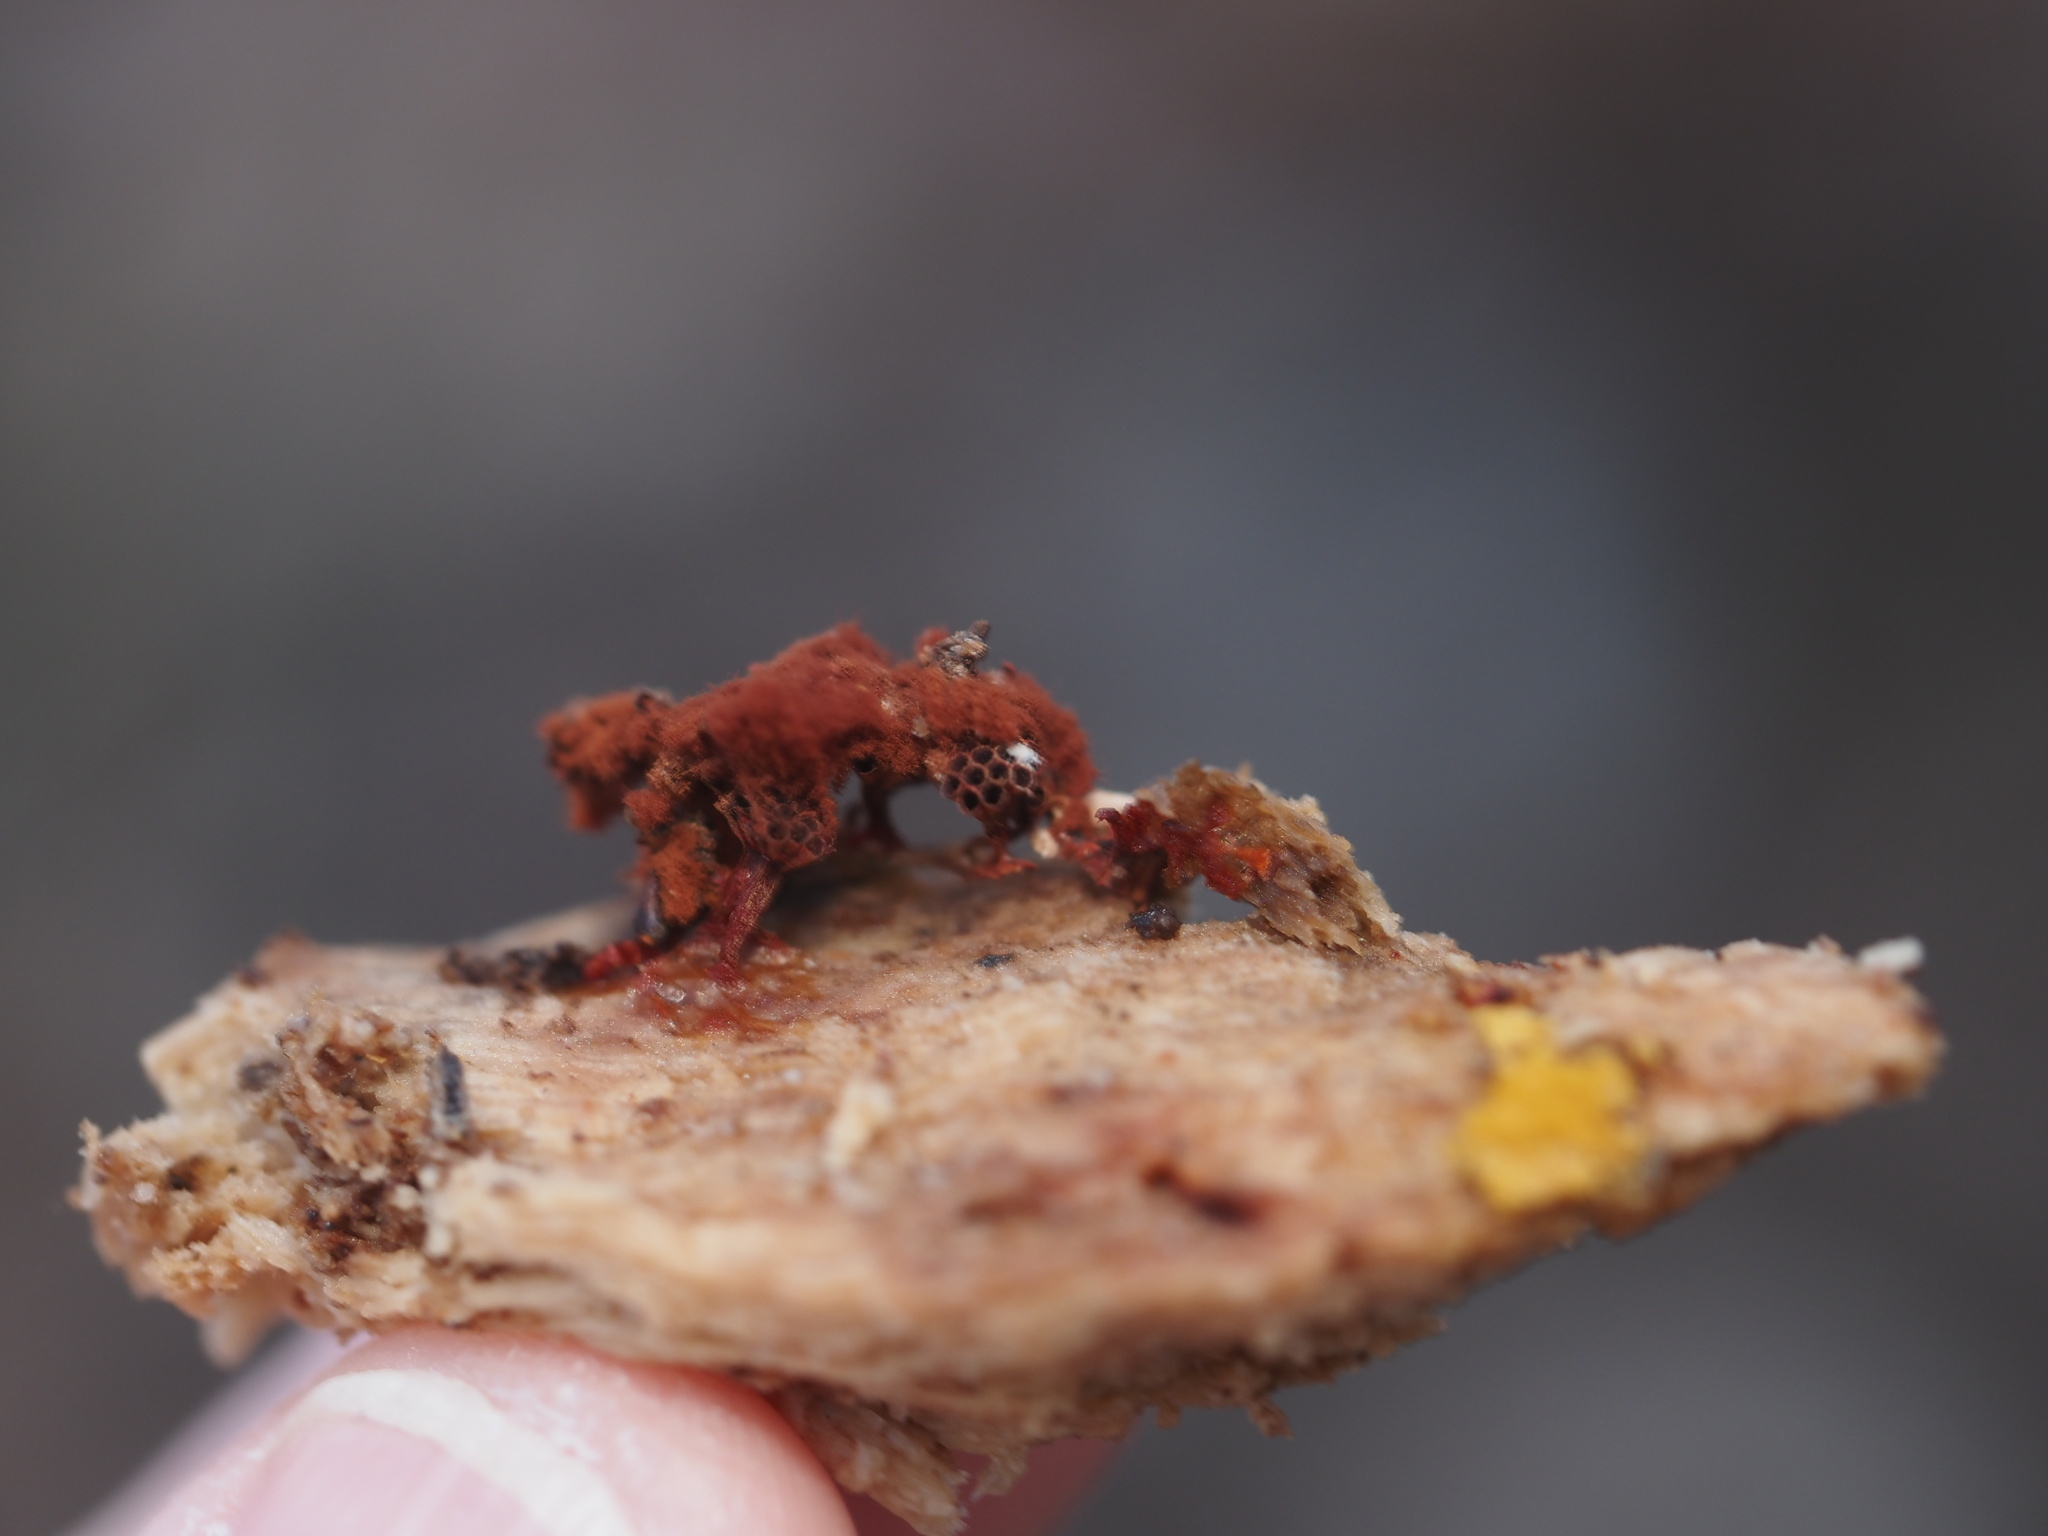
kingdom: Protozoa
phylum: Mycetozoa
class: Myxomycetes
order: Trichiales
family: Trichiaceae
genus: Metatrichia
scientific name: Metatrichia vesparia
